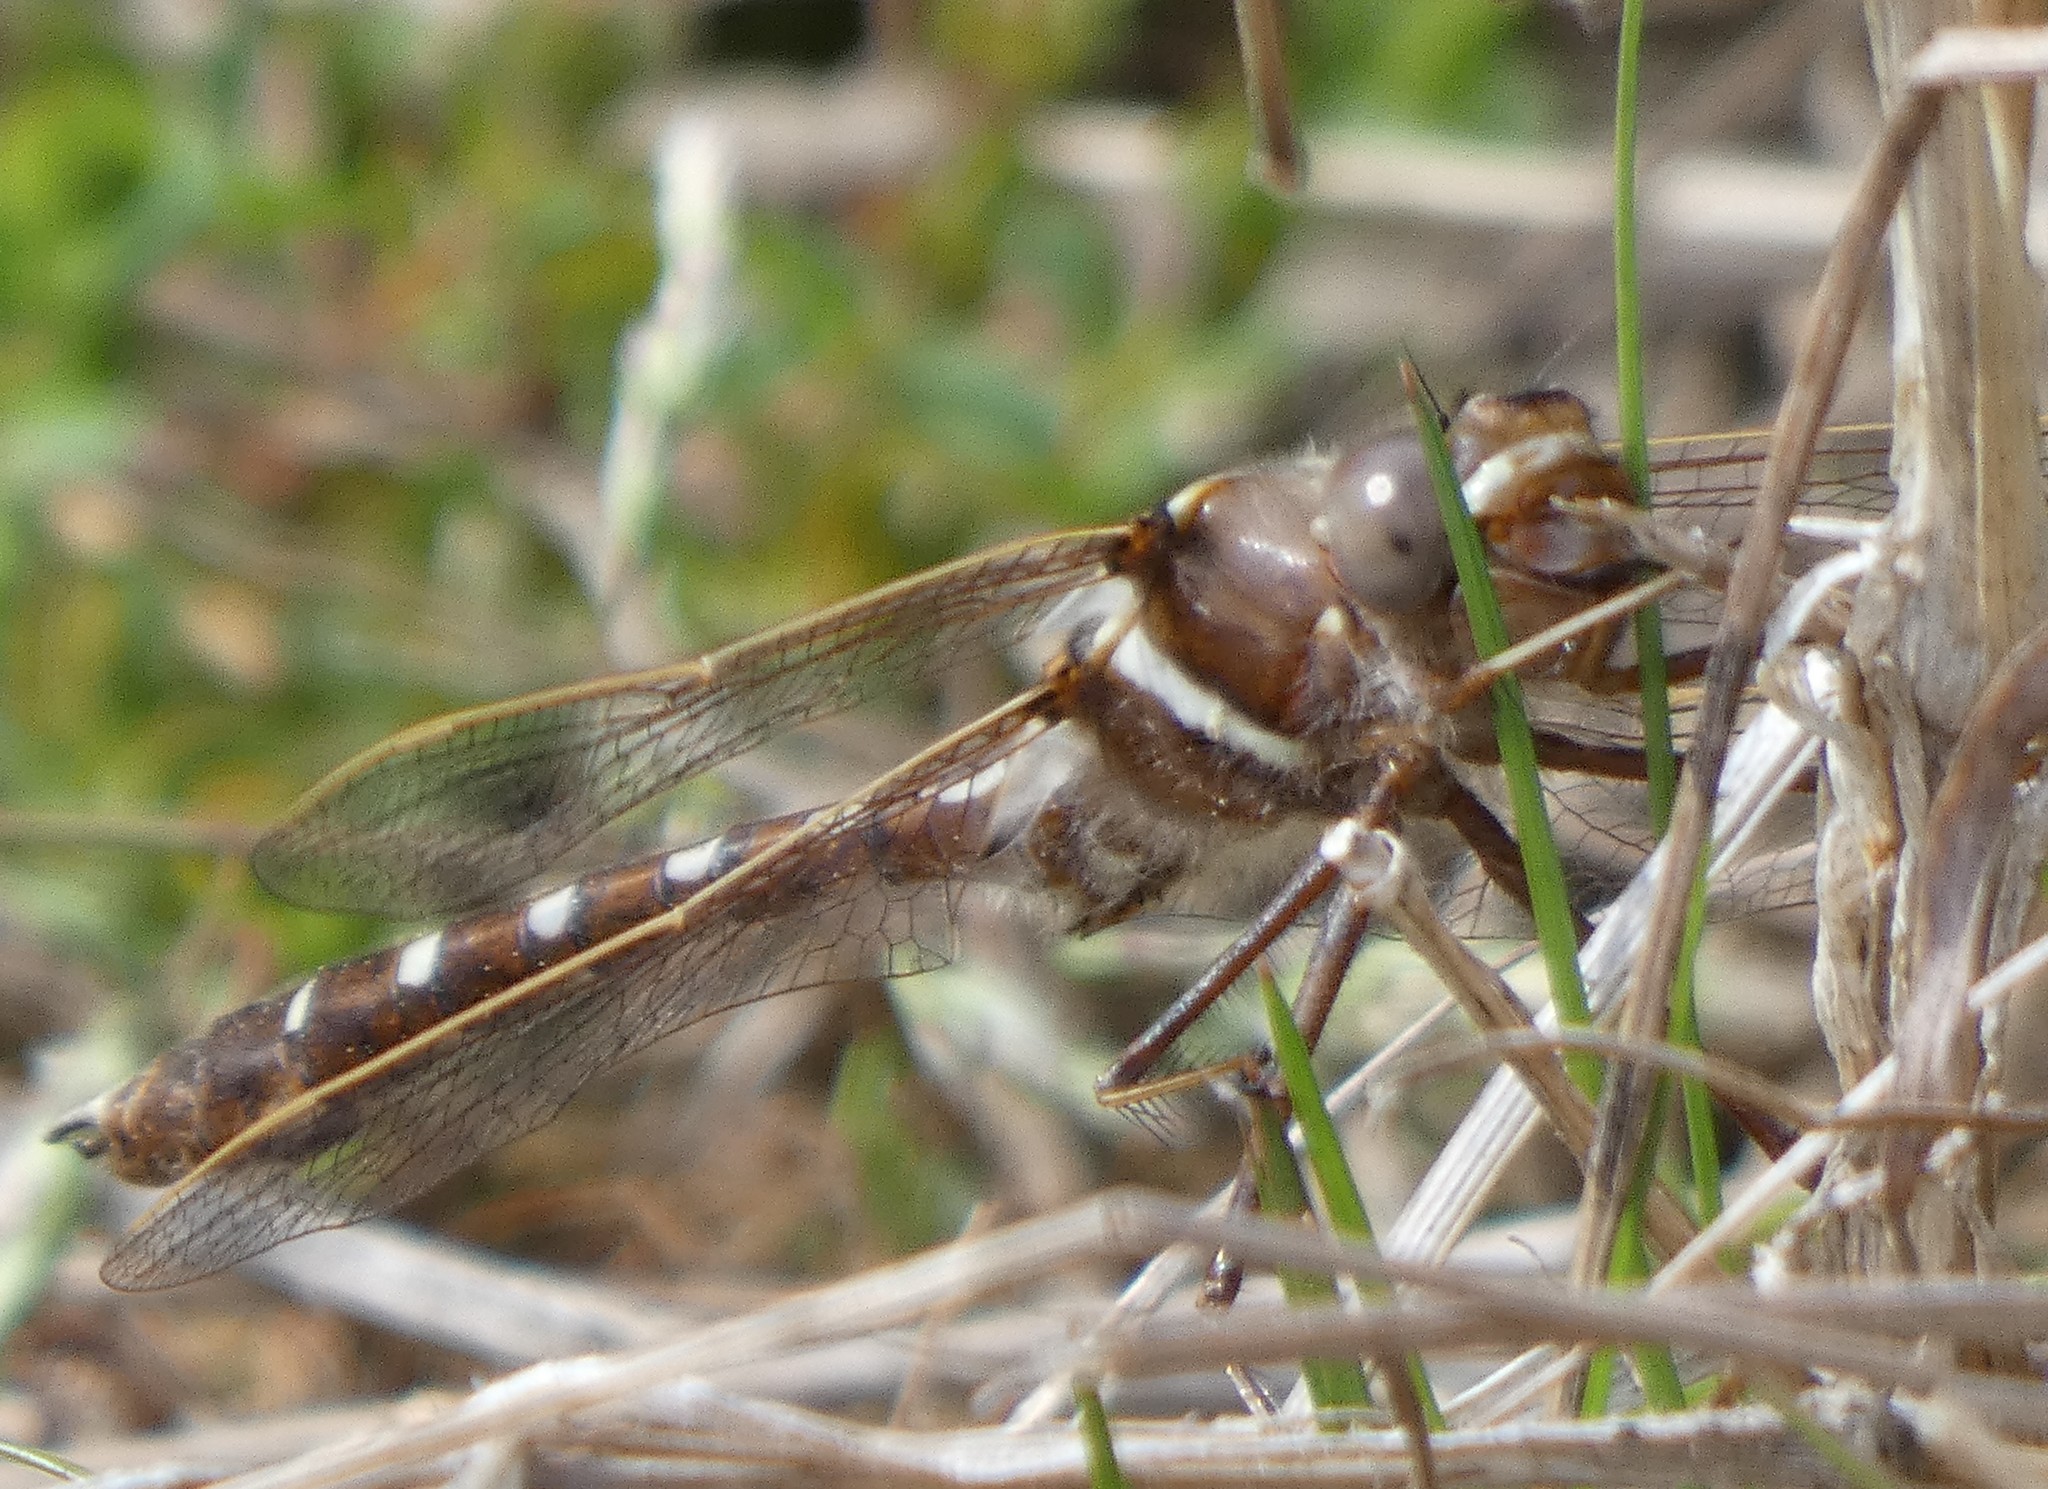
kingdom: Animalia
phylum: Arthropoda
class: Insecta
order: Odonata
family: Macromiidae
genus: Didymops
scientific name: Didymops transversa
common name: Stream cruiser
